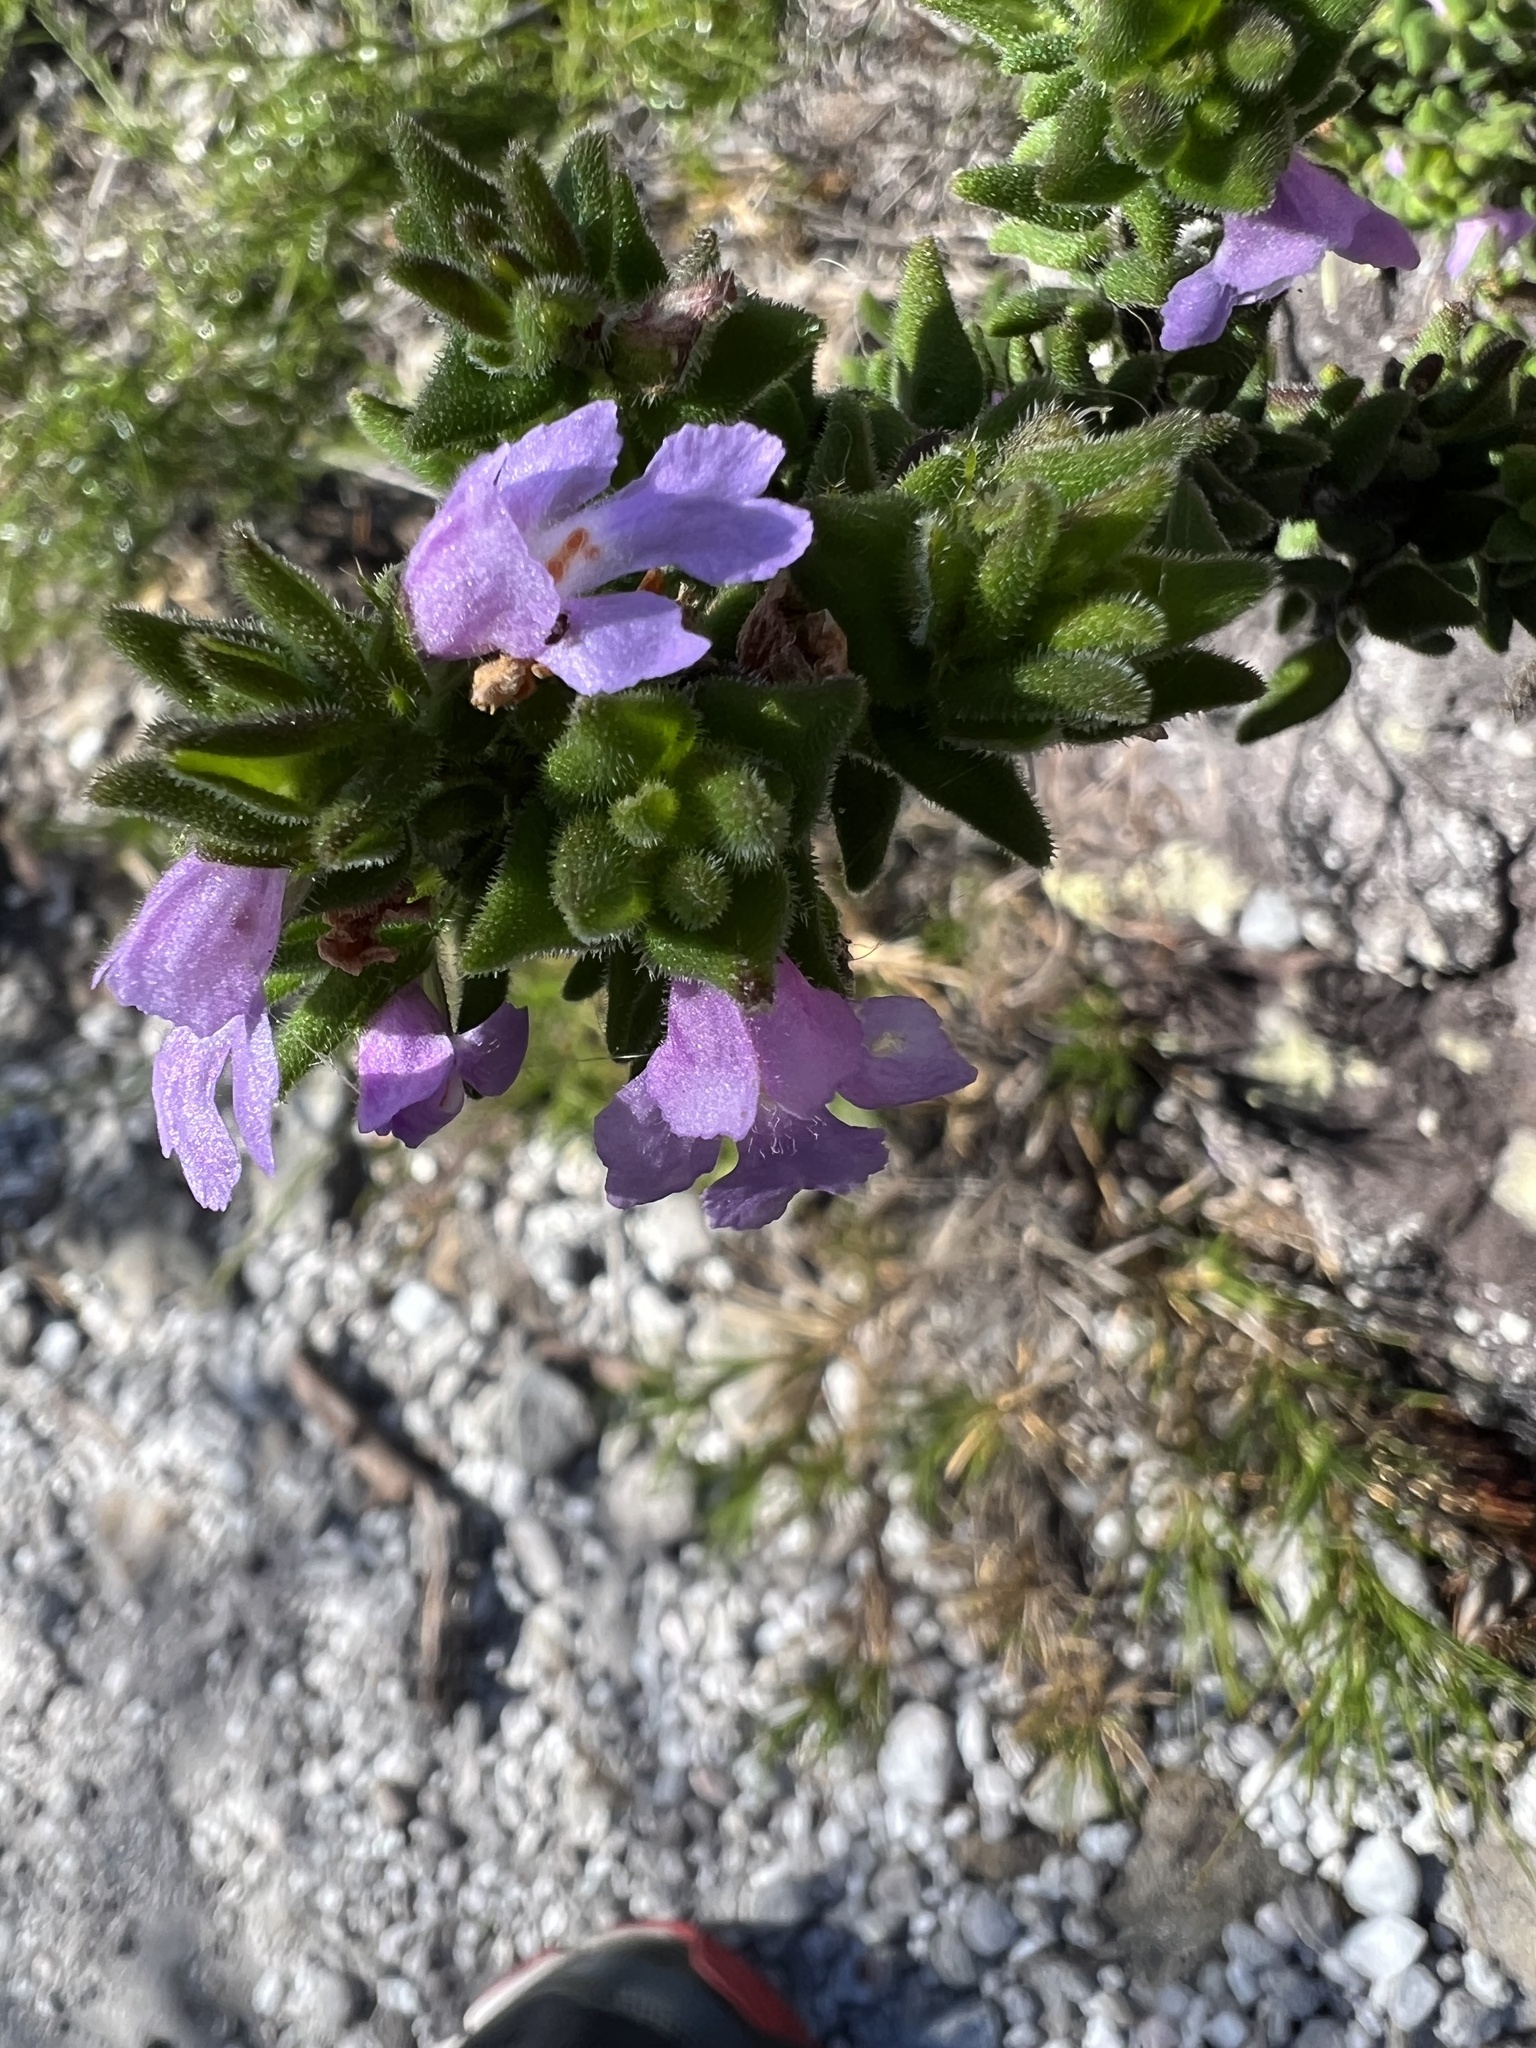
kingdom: Plantae
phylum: Tracheophyta
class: Magnoliopsida
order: Lamiales
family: Lamiaceae
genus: Prostanthera
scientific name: Prostanthera densa
